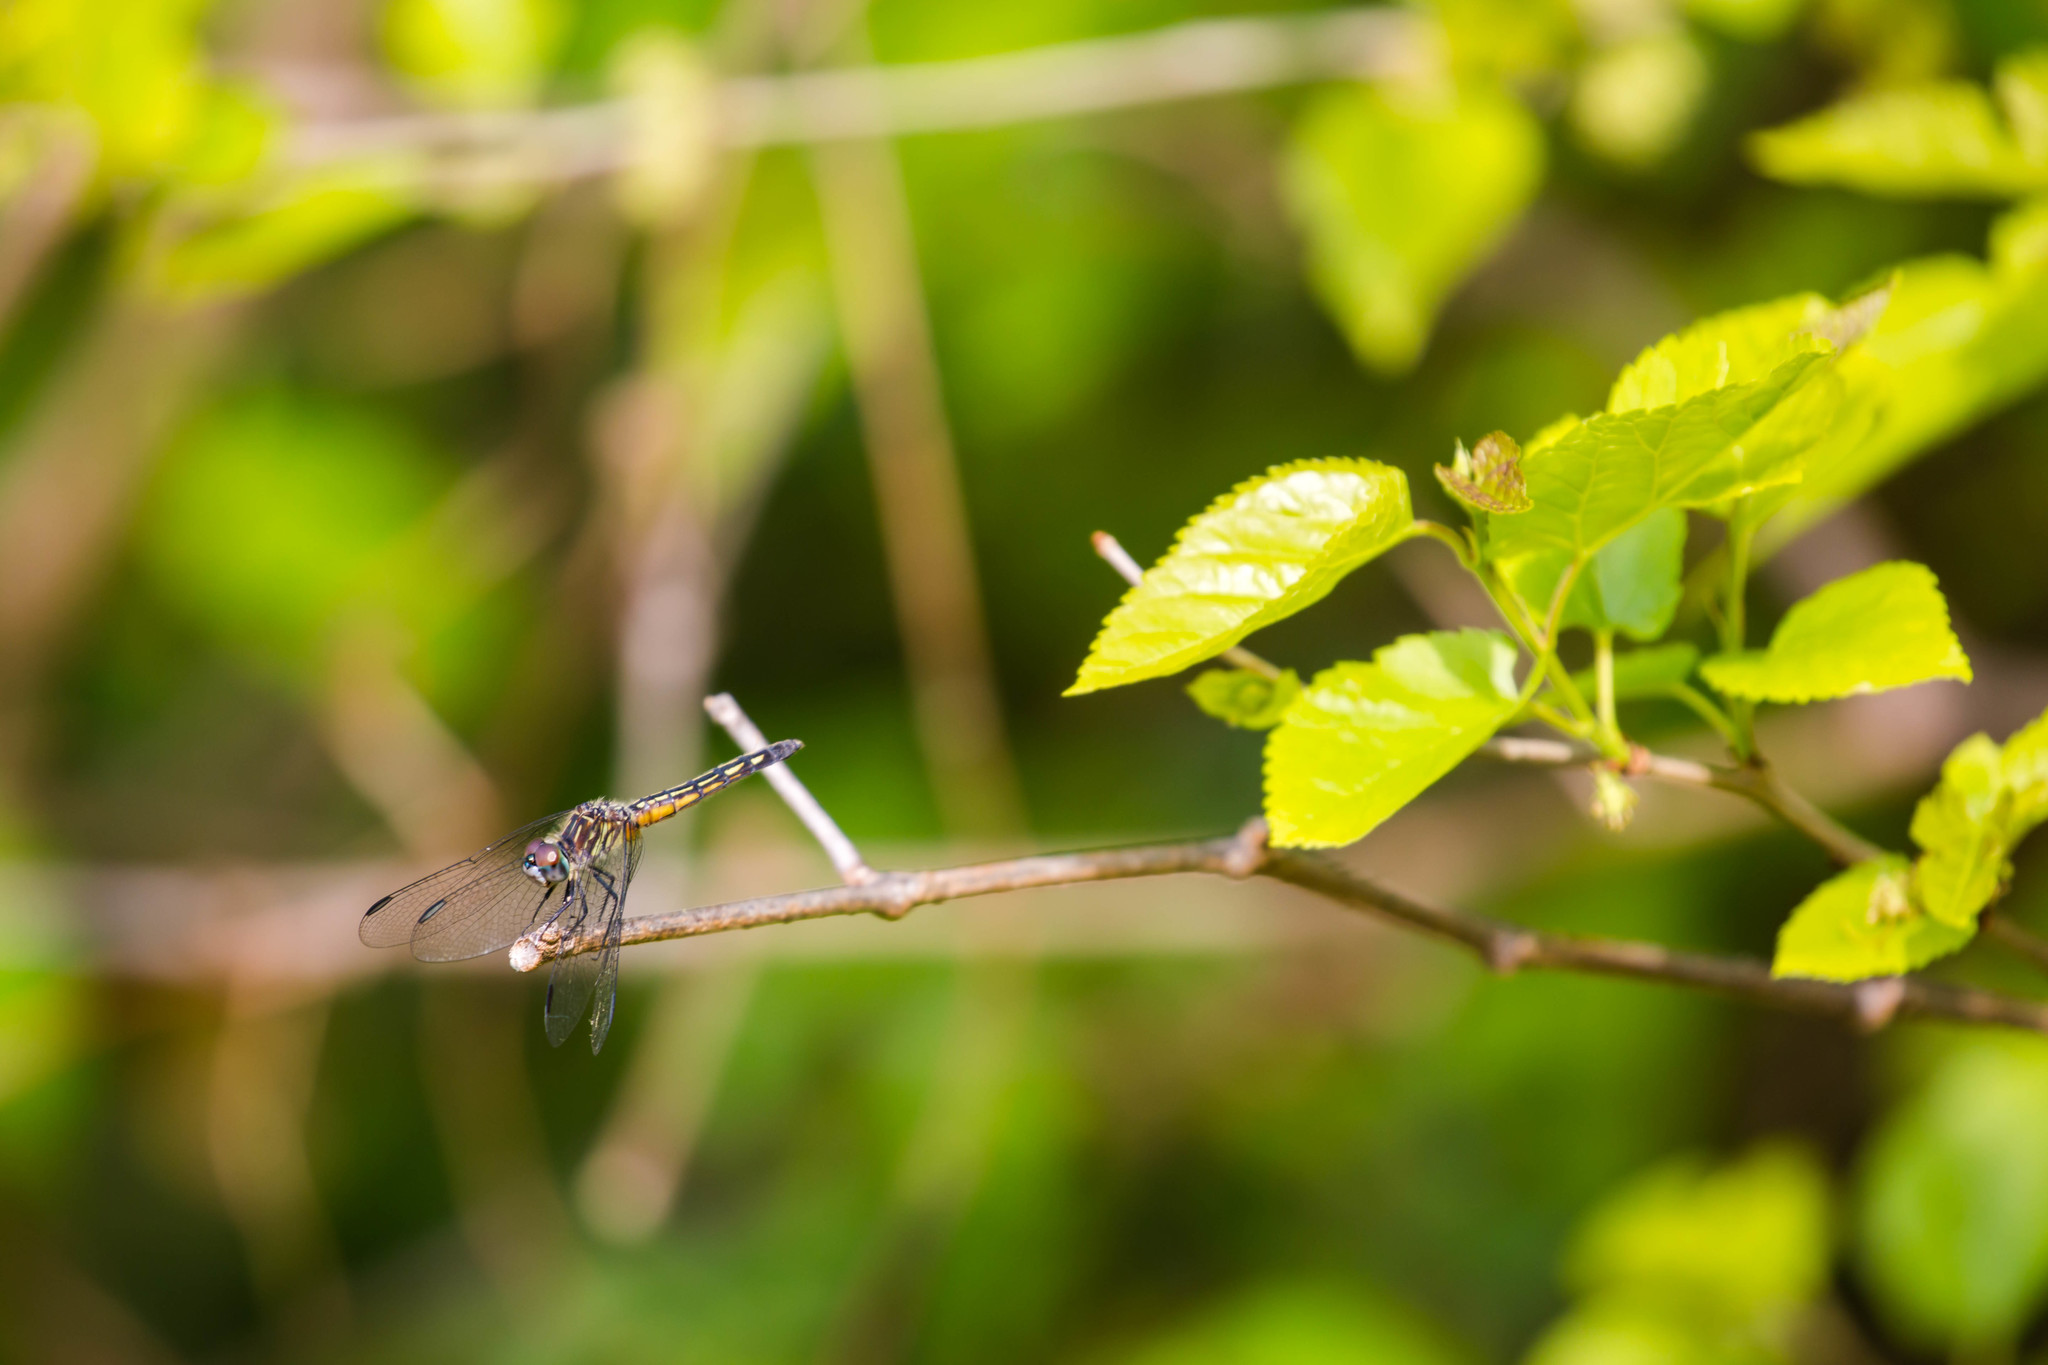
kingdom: Animalia
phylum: Arthropoda
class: Insecta
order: Odonata
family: Libellulidae
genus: Pachydiplax
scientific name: Pachydiplax longipennis
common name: Blue dasher
